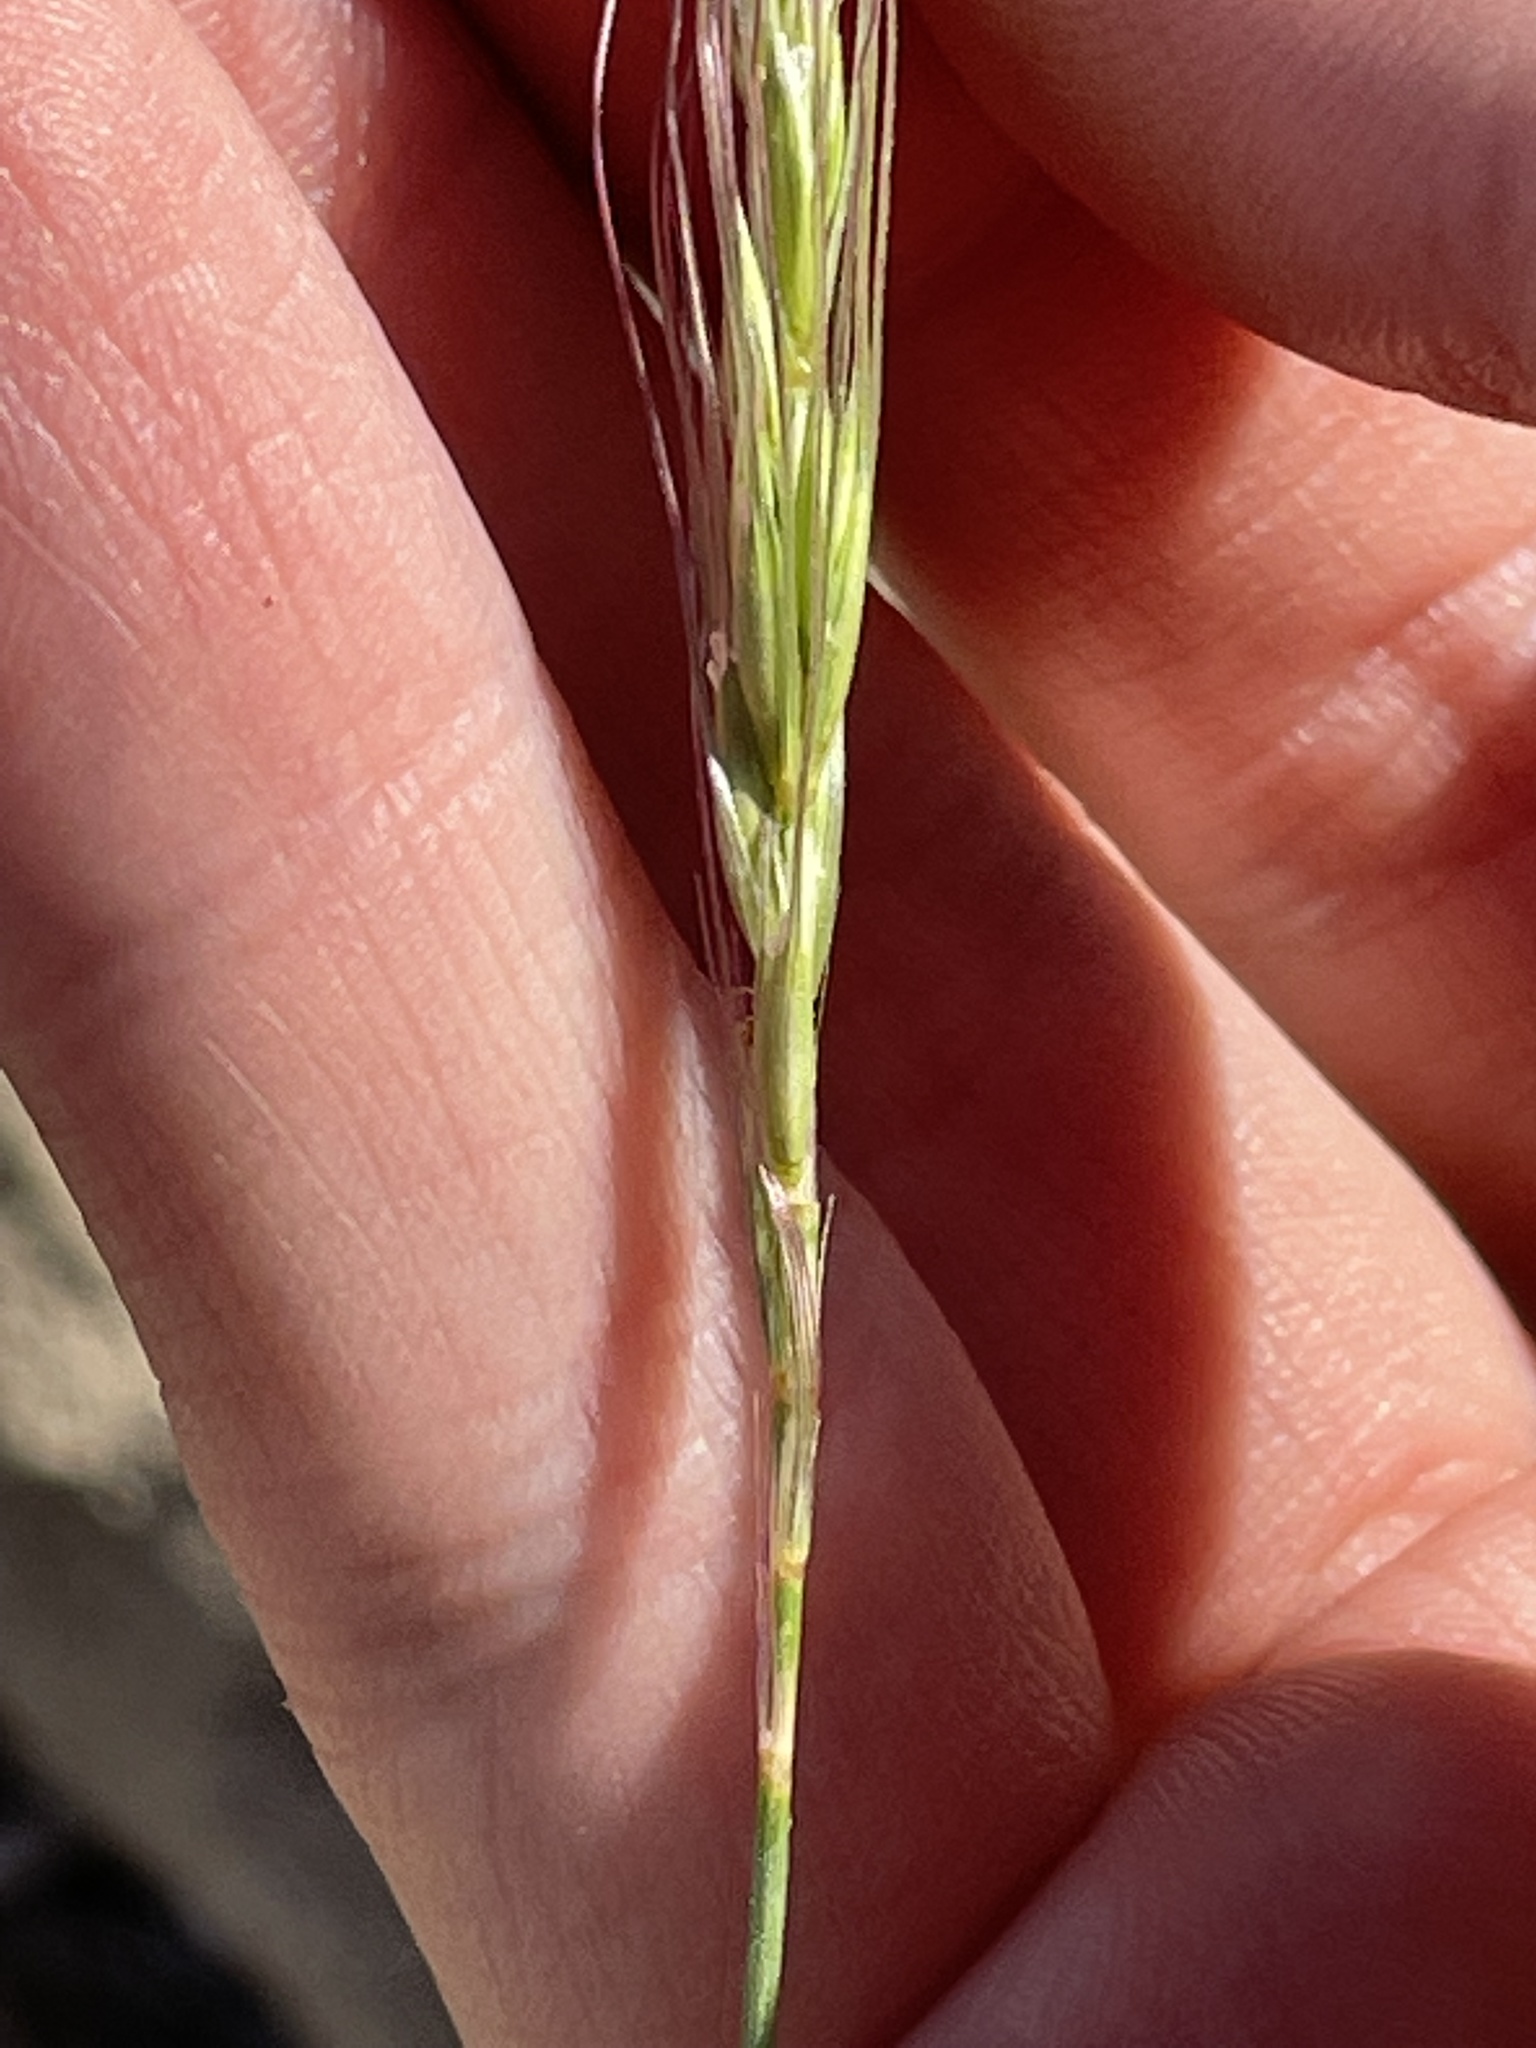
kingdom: Plantae
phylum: Tracheophyta
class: Liliopsida
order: Poales
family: Poaceae
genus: Elymus
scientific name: Elymus elymoides
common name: Bottlebrush squirreltail
